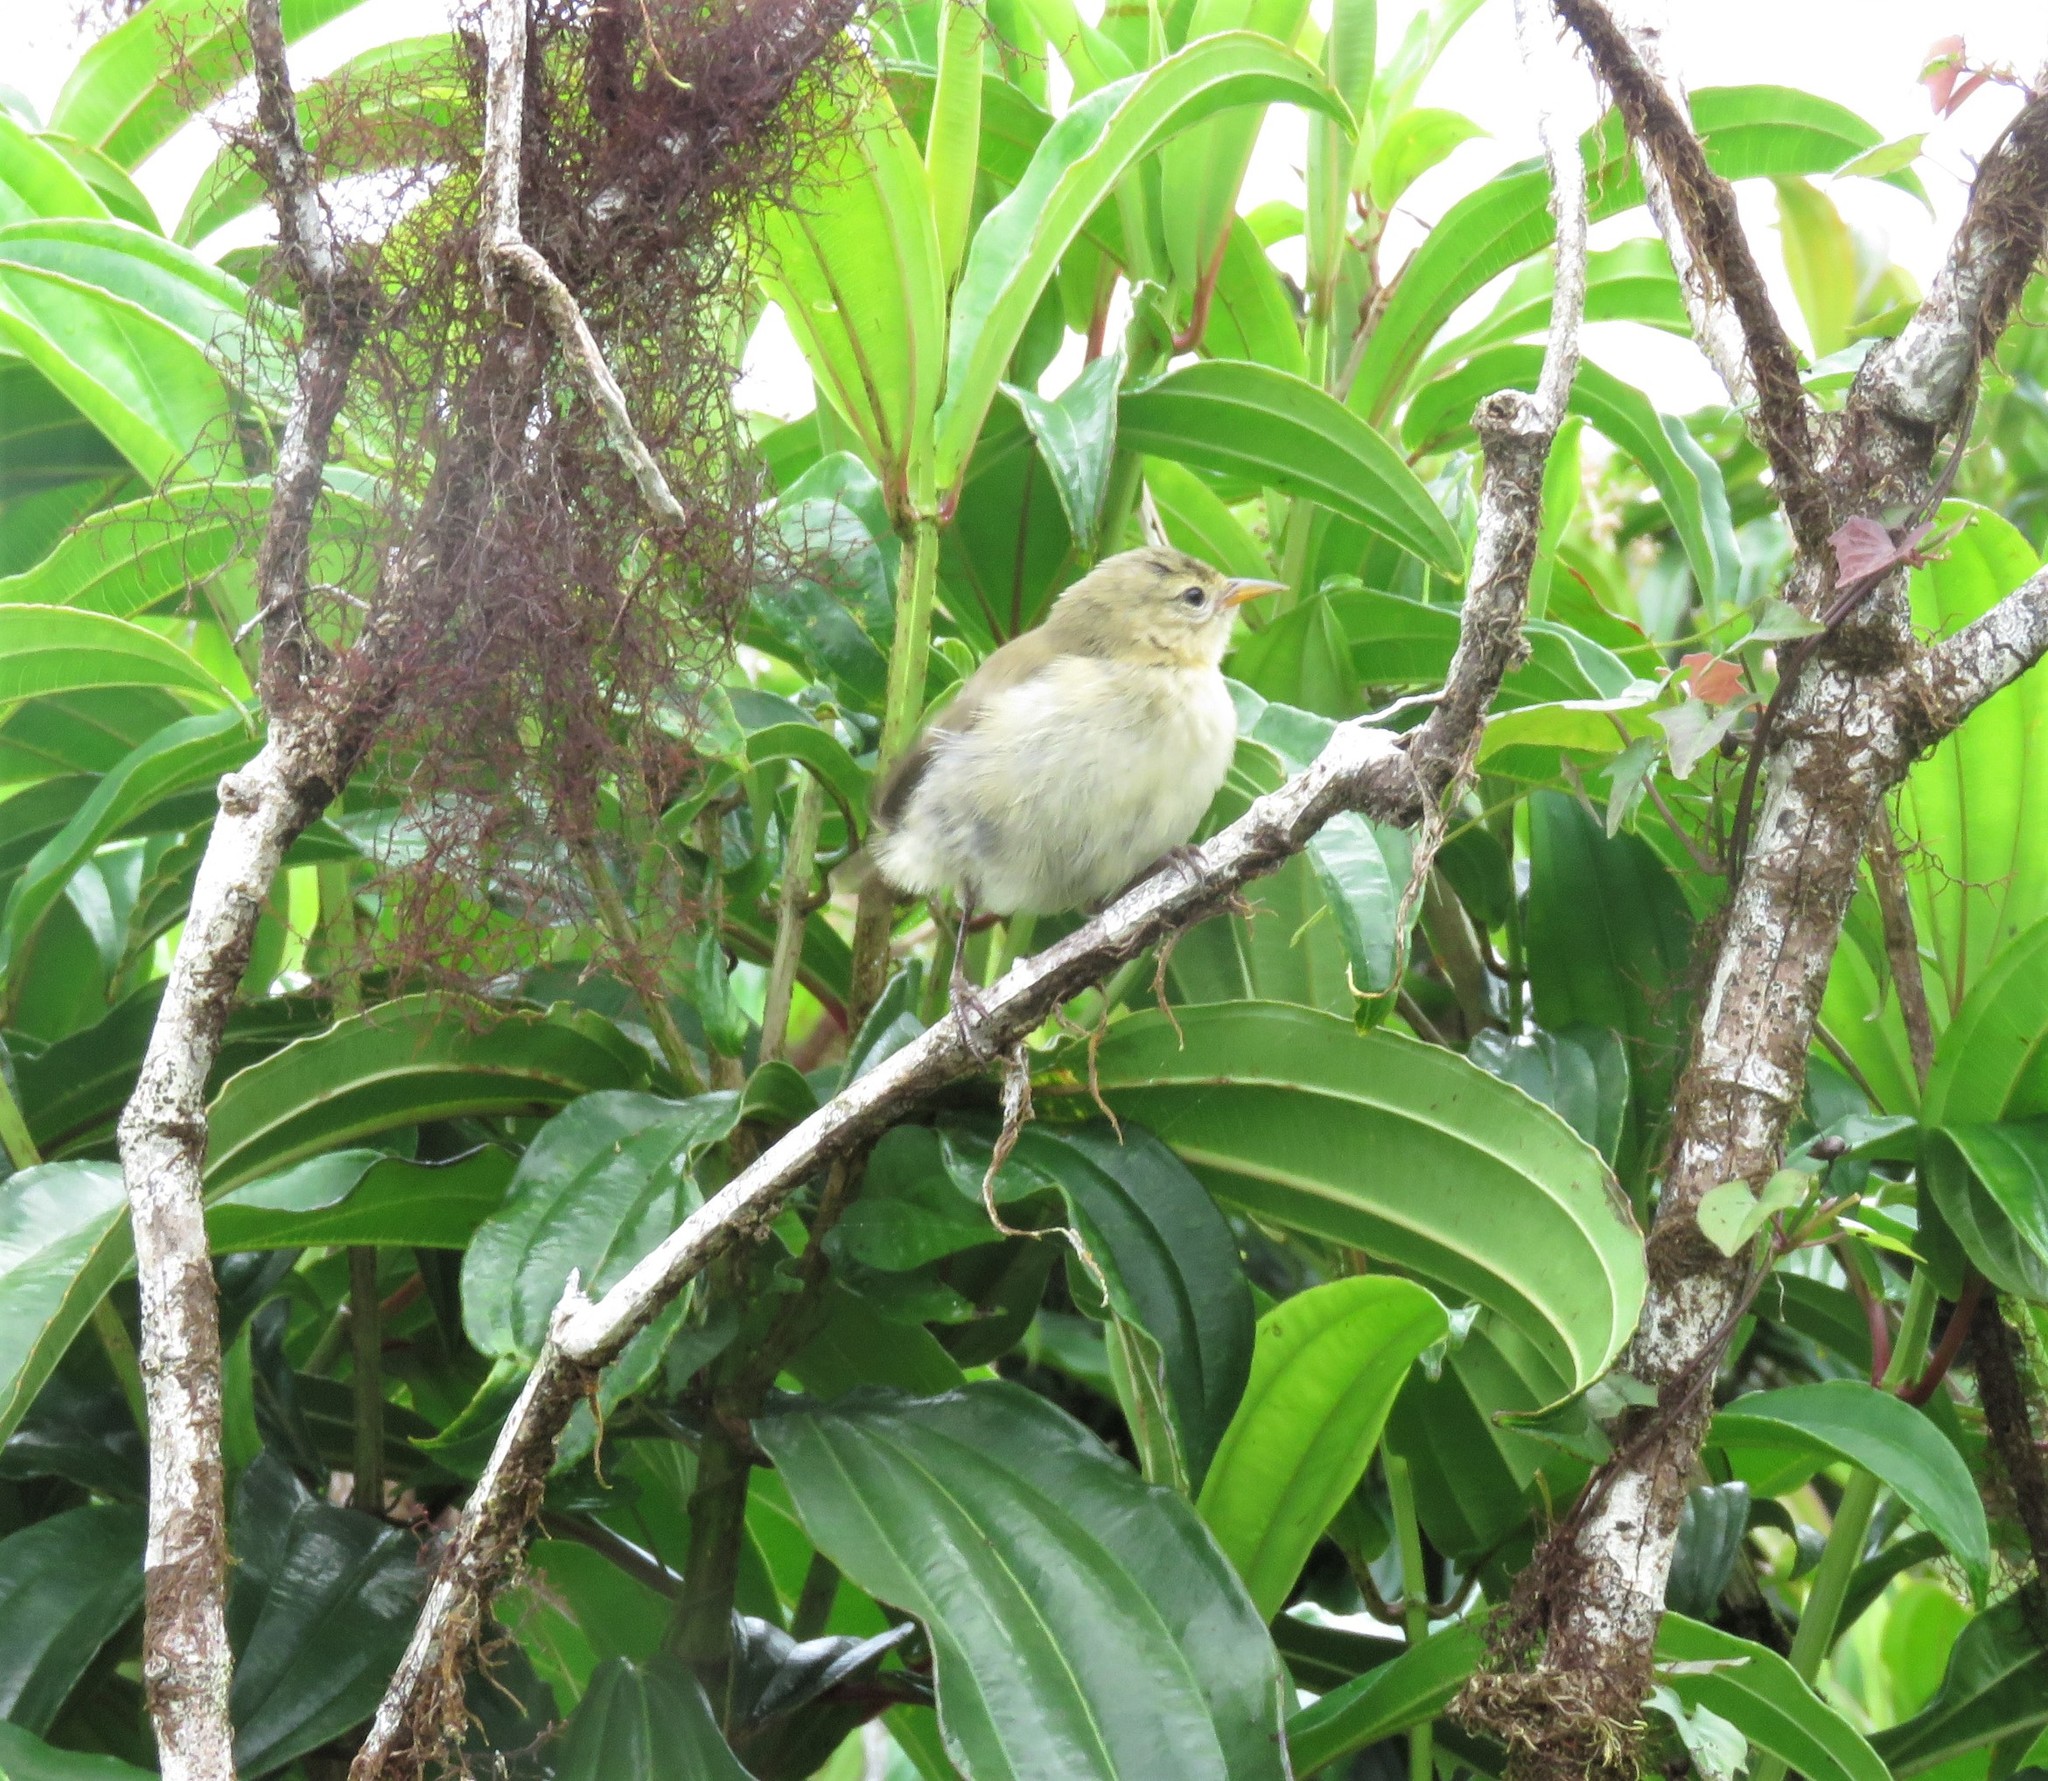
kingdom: Animalia
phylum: Chordata
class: Aves
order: Passeriformes
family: Thraupidae
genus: Certhidea
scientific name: Certhidea fusca
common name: Grey warbler-finch
